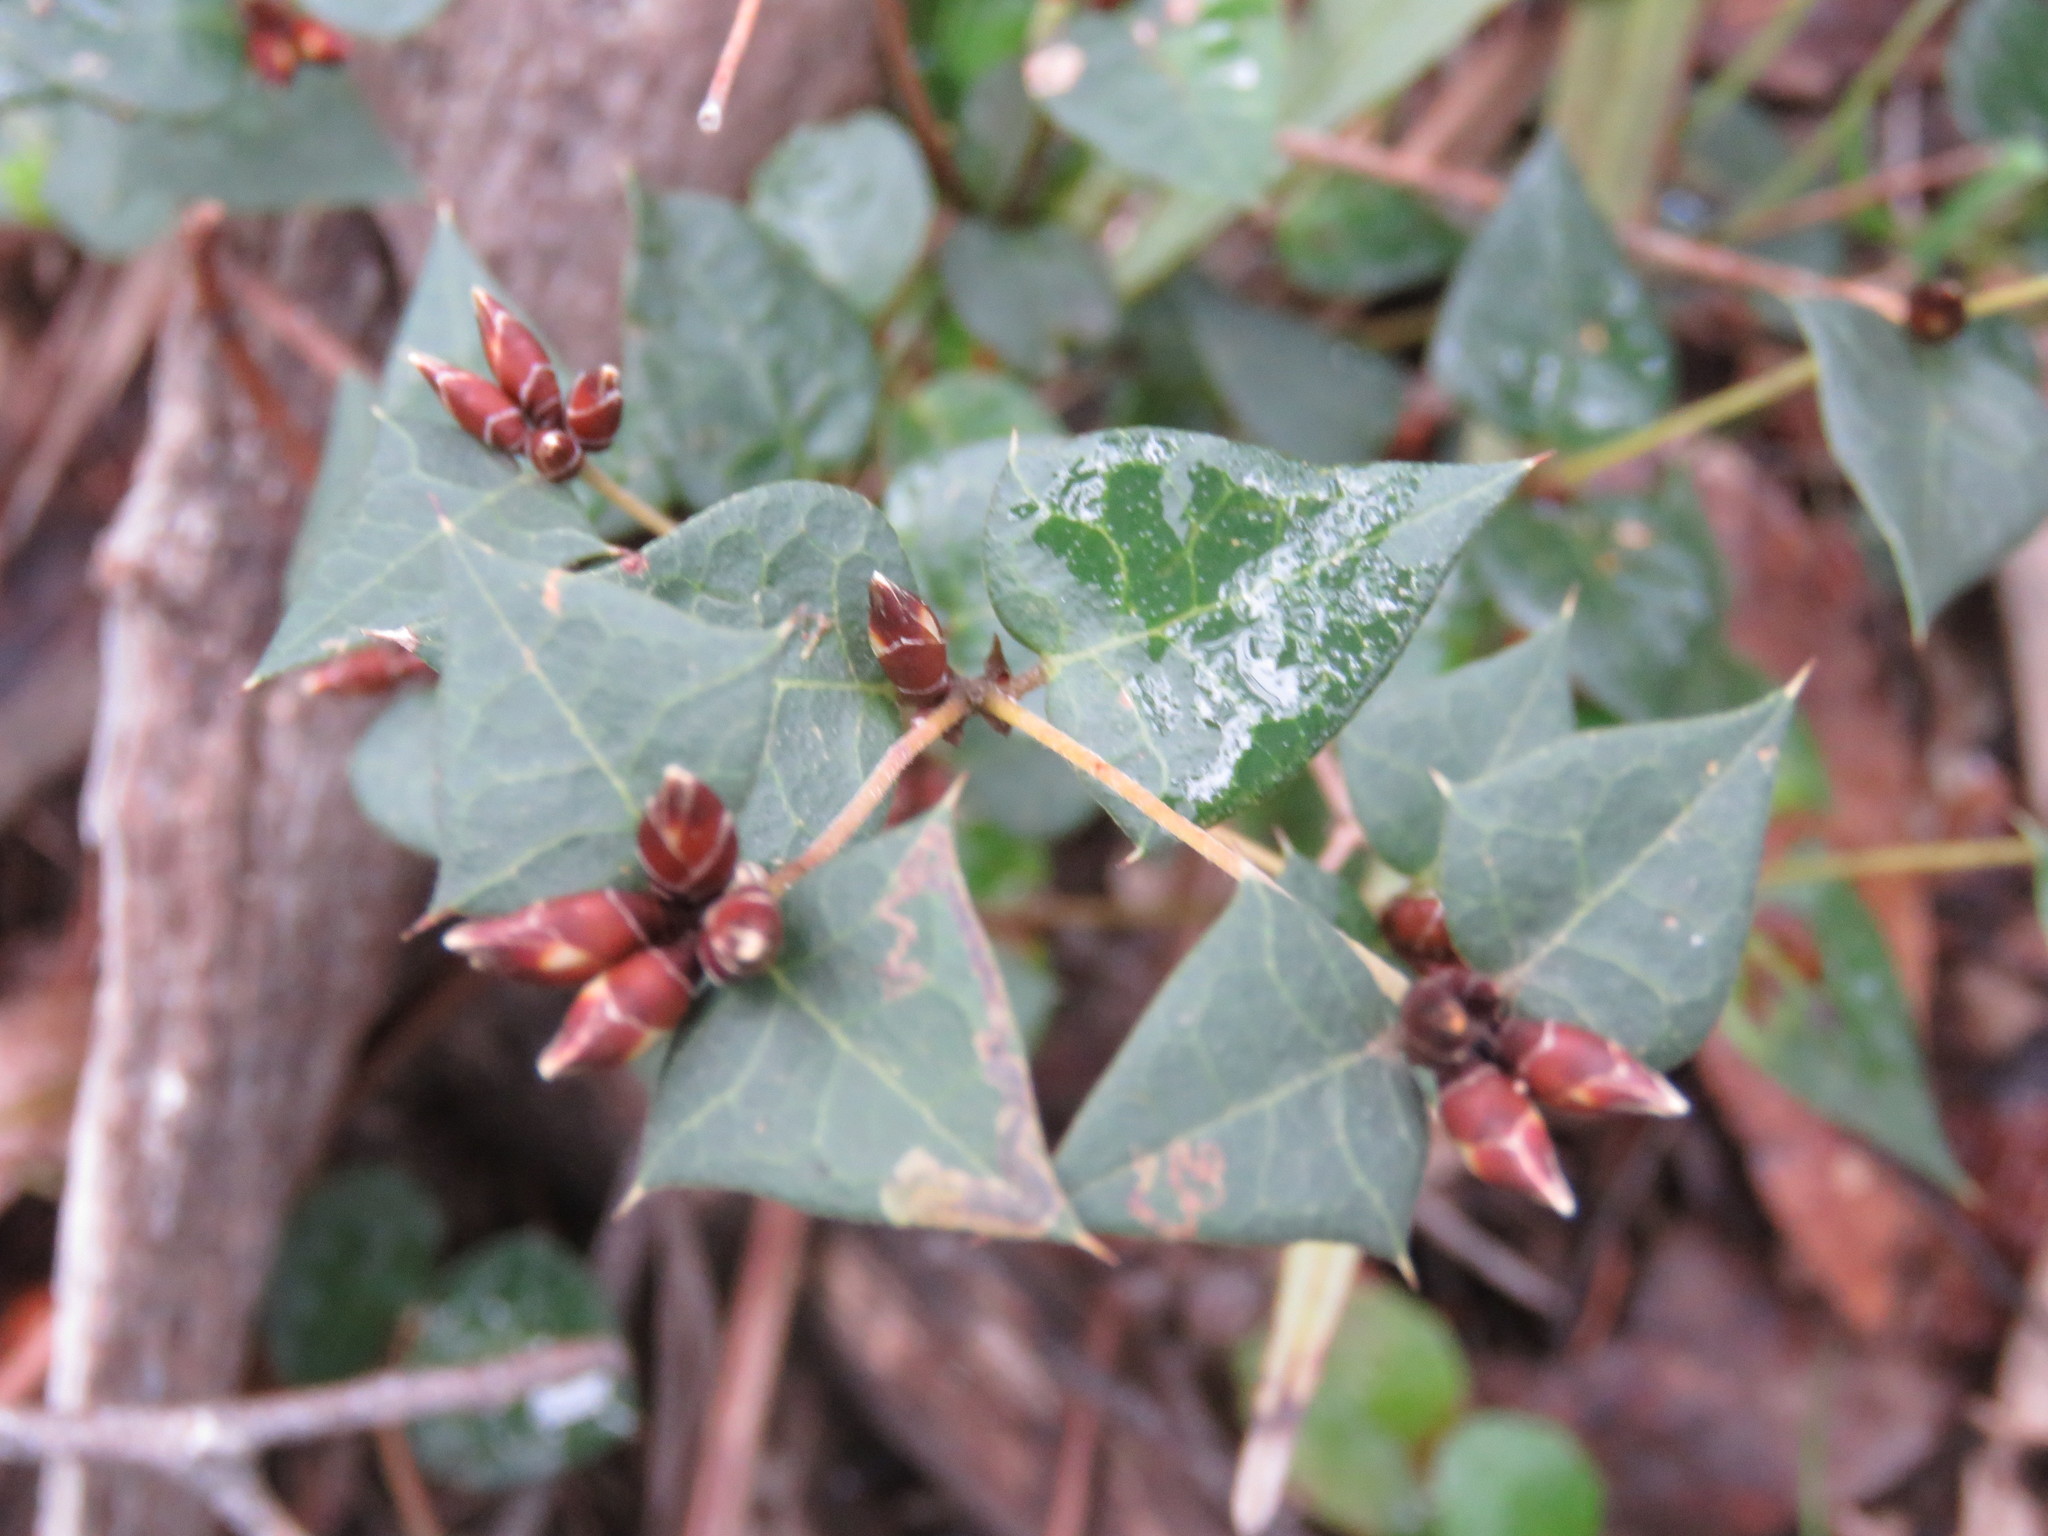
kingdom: Plantae
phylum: Tracheophyta
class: Magnoliopsida
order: Fabales
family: Fabaceae
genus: Platylobium
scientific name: Platylobium obtusangulum
